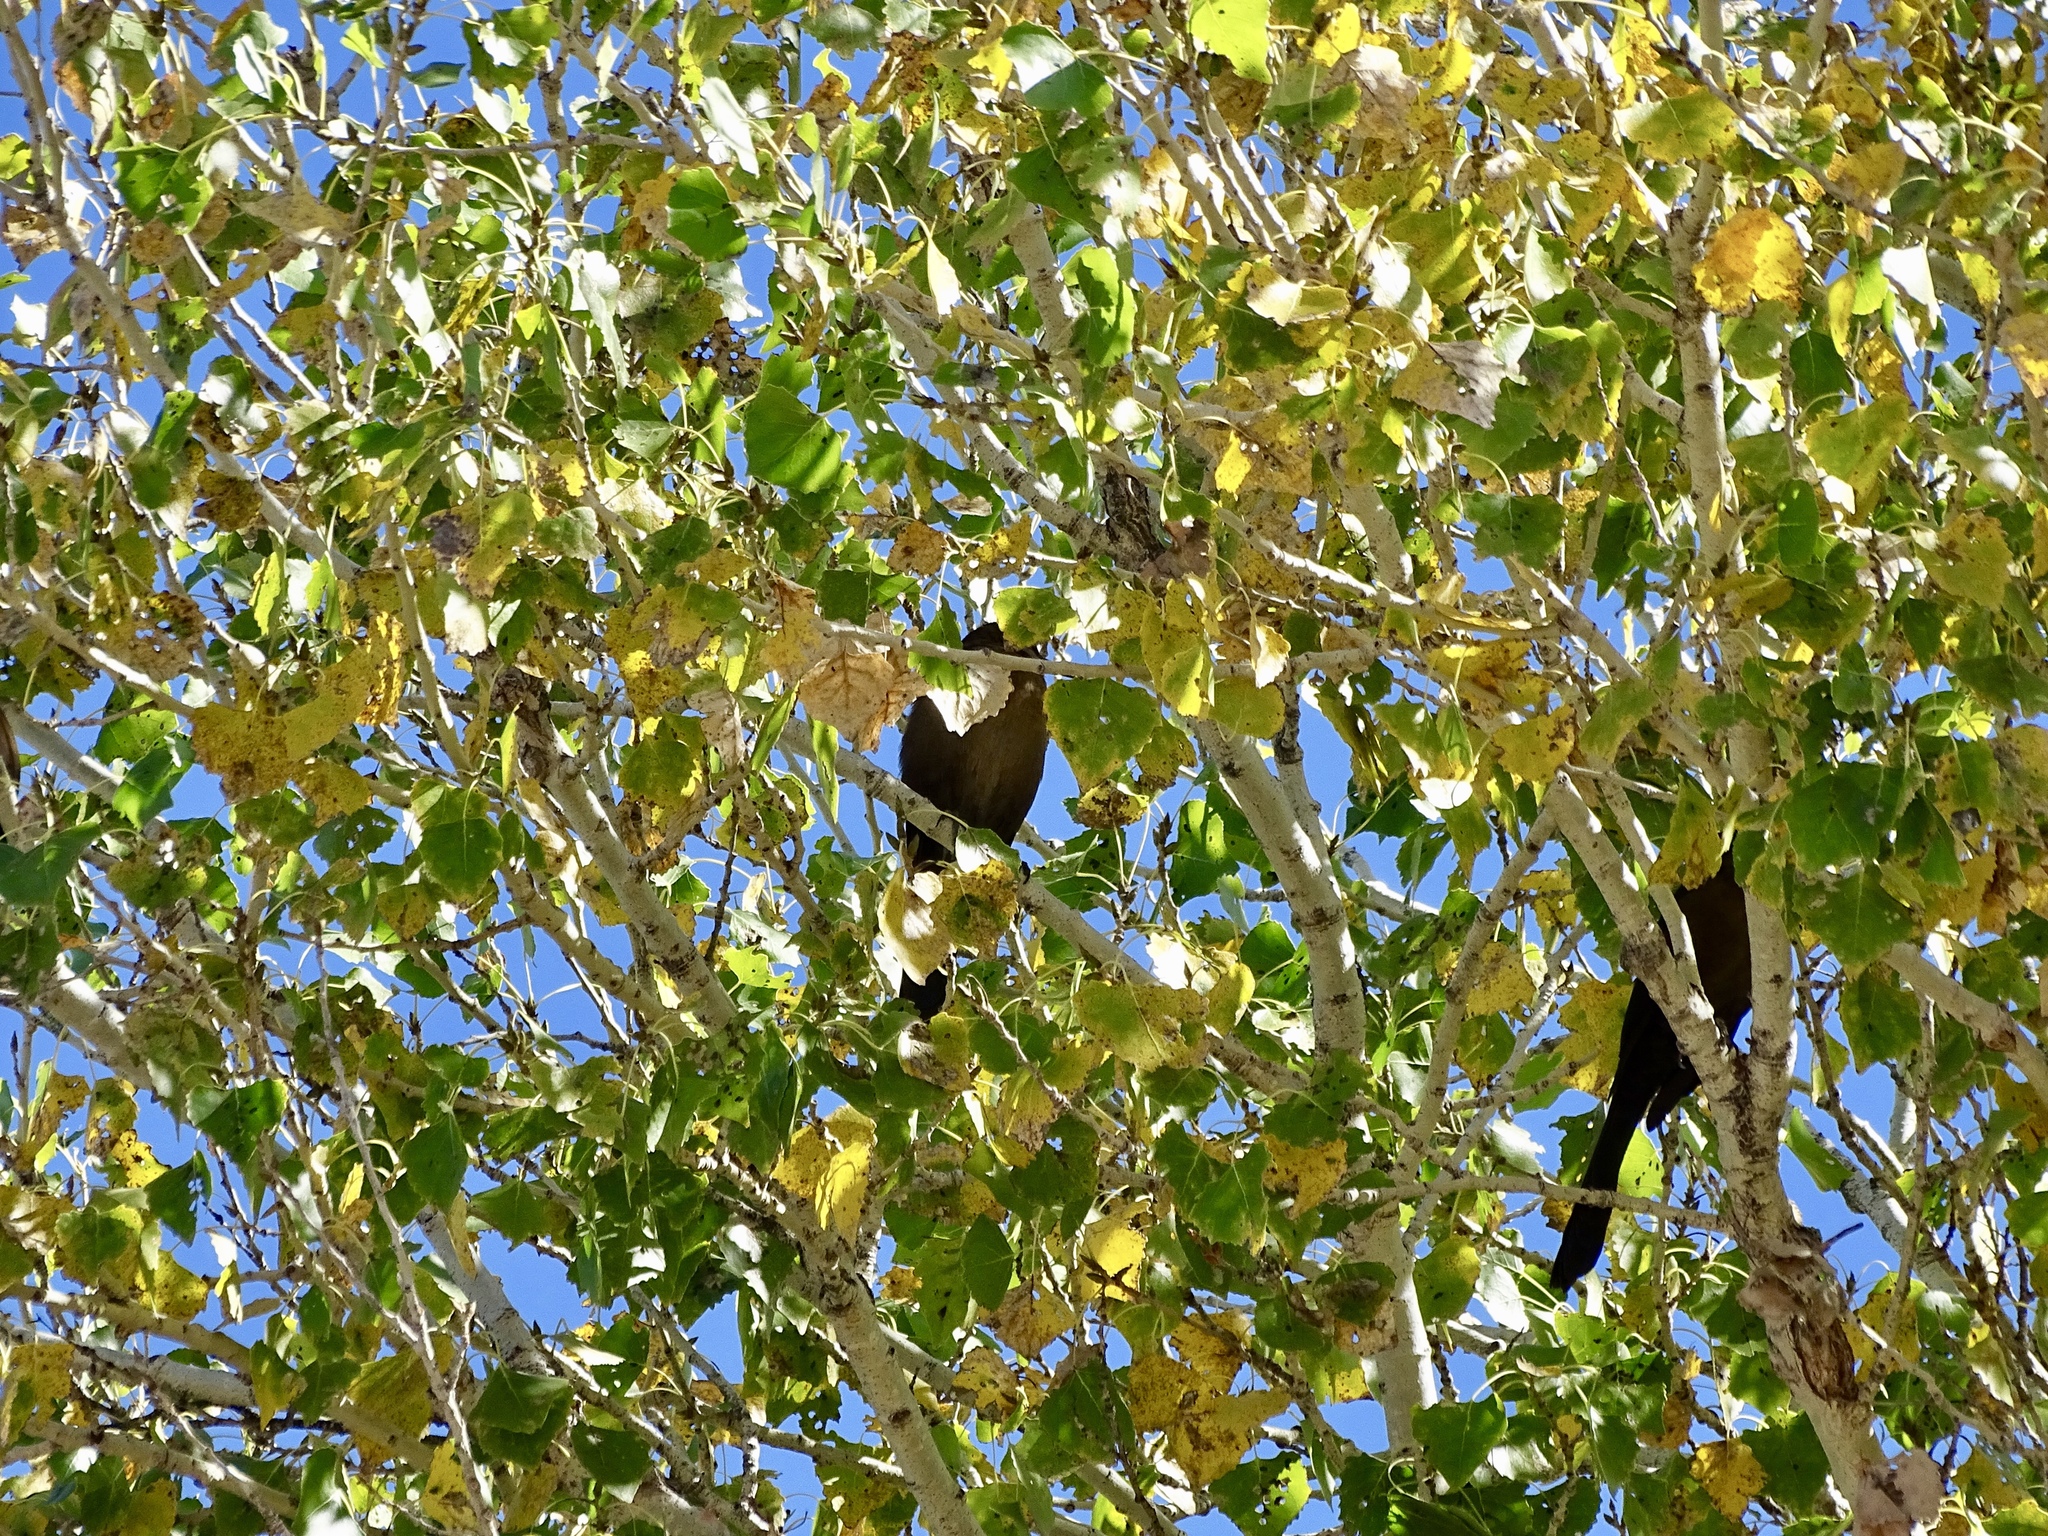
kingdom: Animalia
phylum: Chordata
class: Aves
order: Passeriformes
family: Icteridae
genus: Quiscalus
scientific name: Quiscalus mexicanus
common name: Great-tailed grackle
